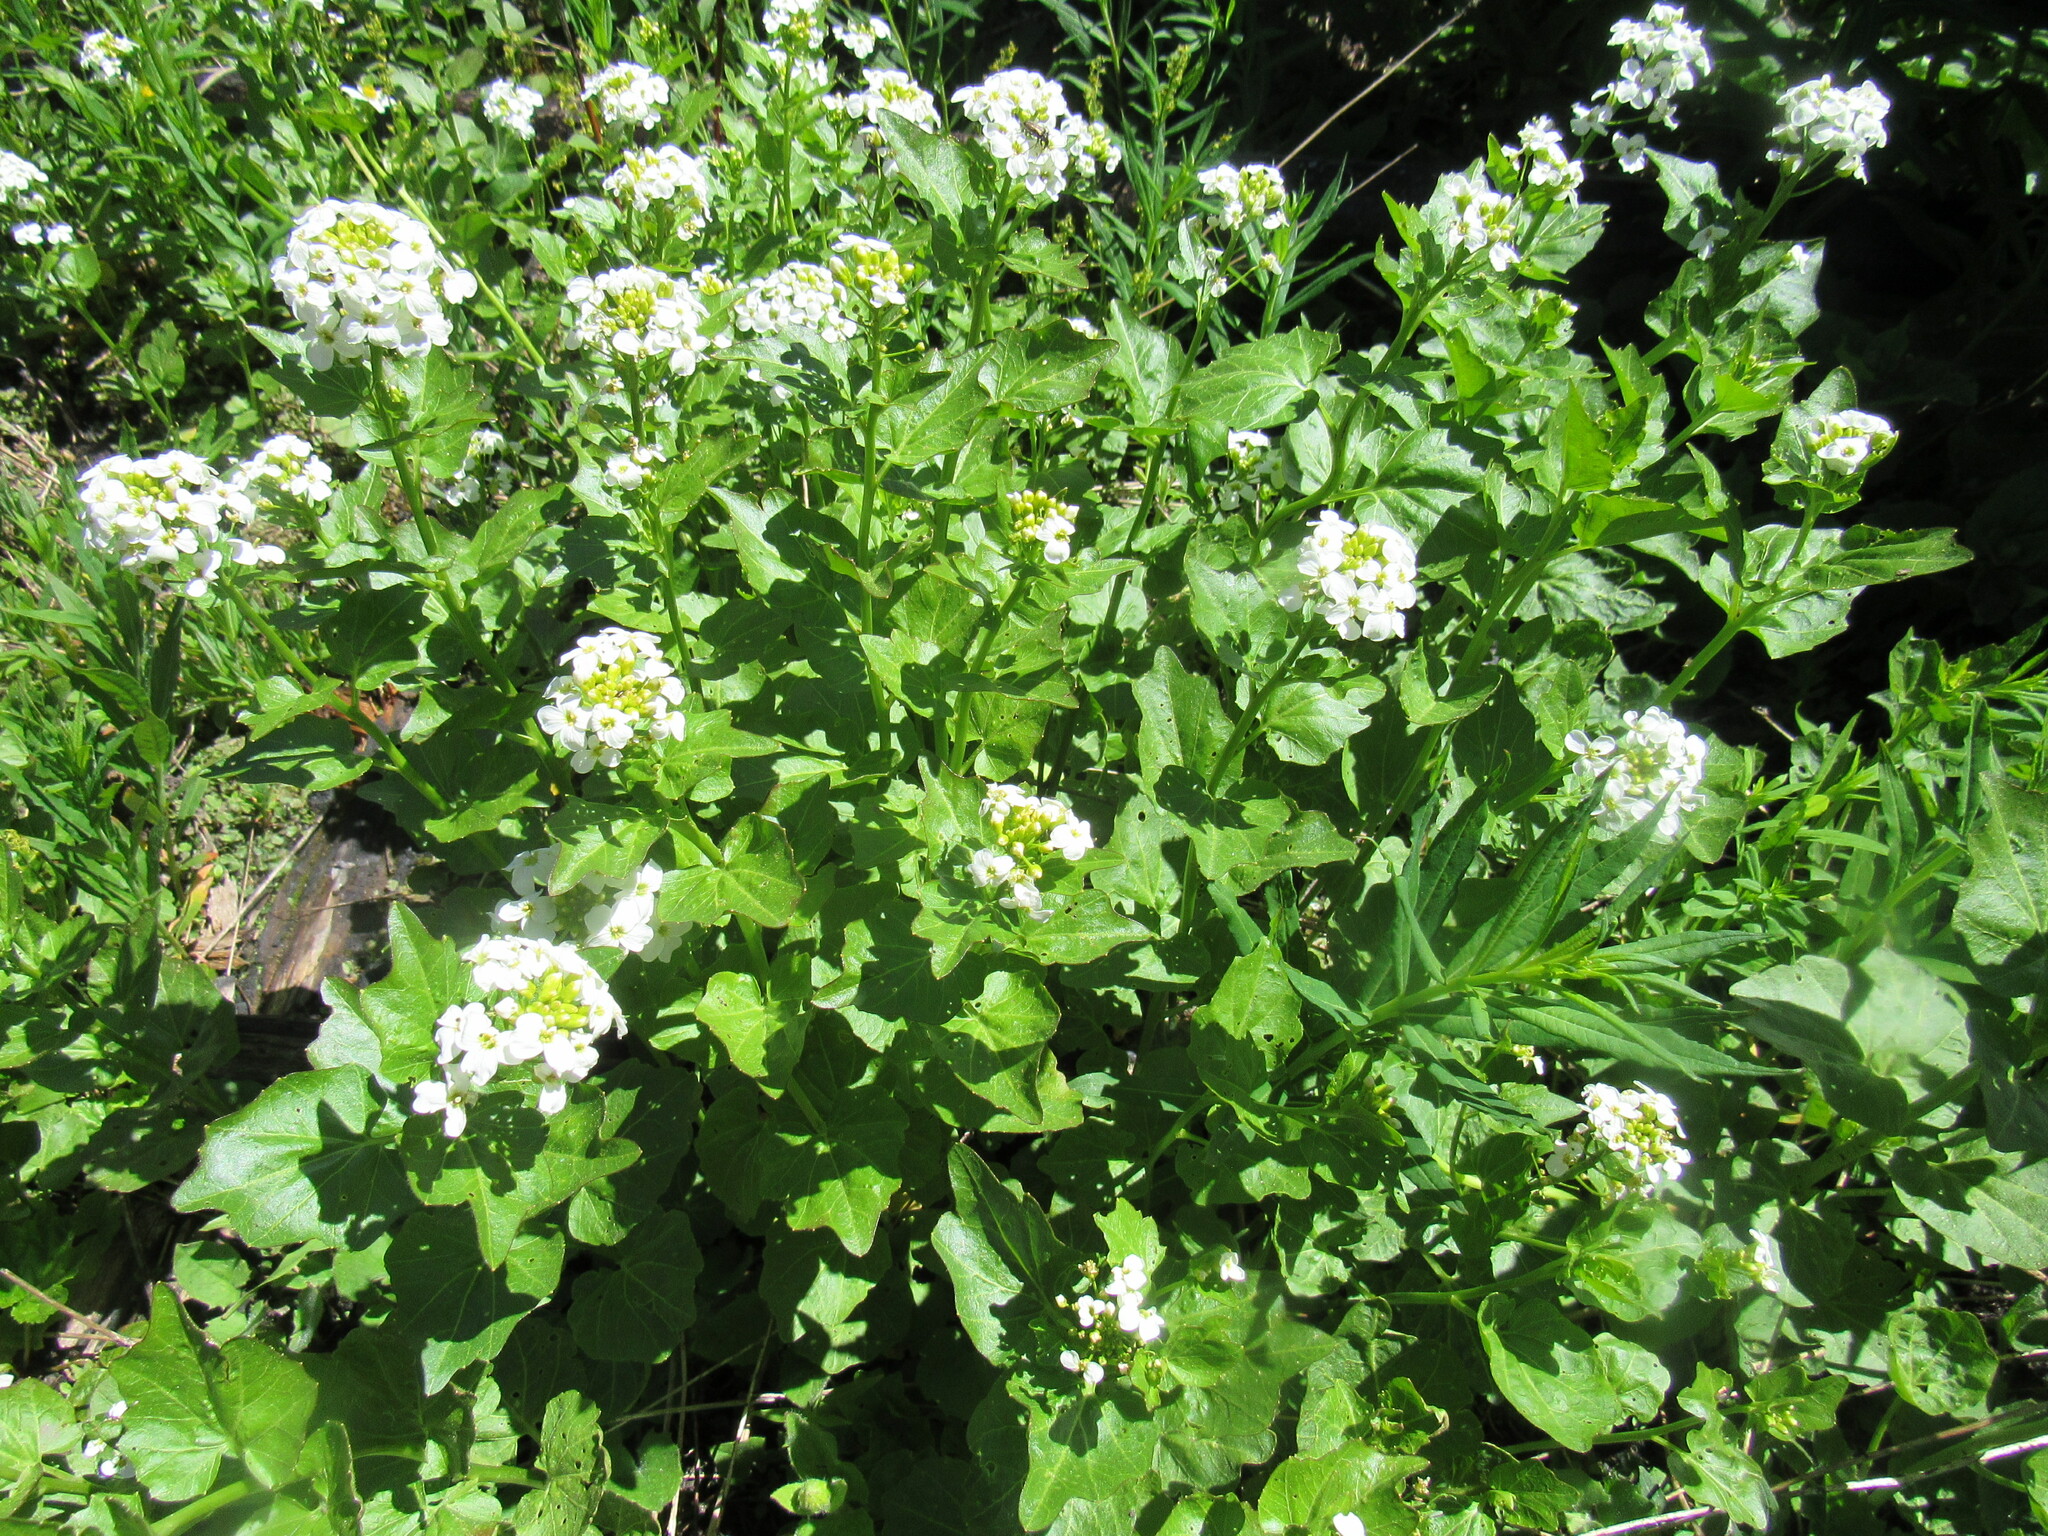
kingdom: Plantae
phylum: Tracheophyta
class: Magnoliopsida
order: Brassicales
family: Brassicaceae
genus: Cardamine
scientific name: Cardamine cordifolia
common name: Heart-leaf bittercress
